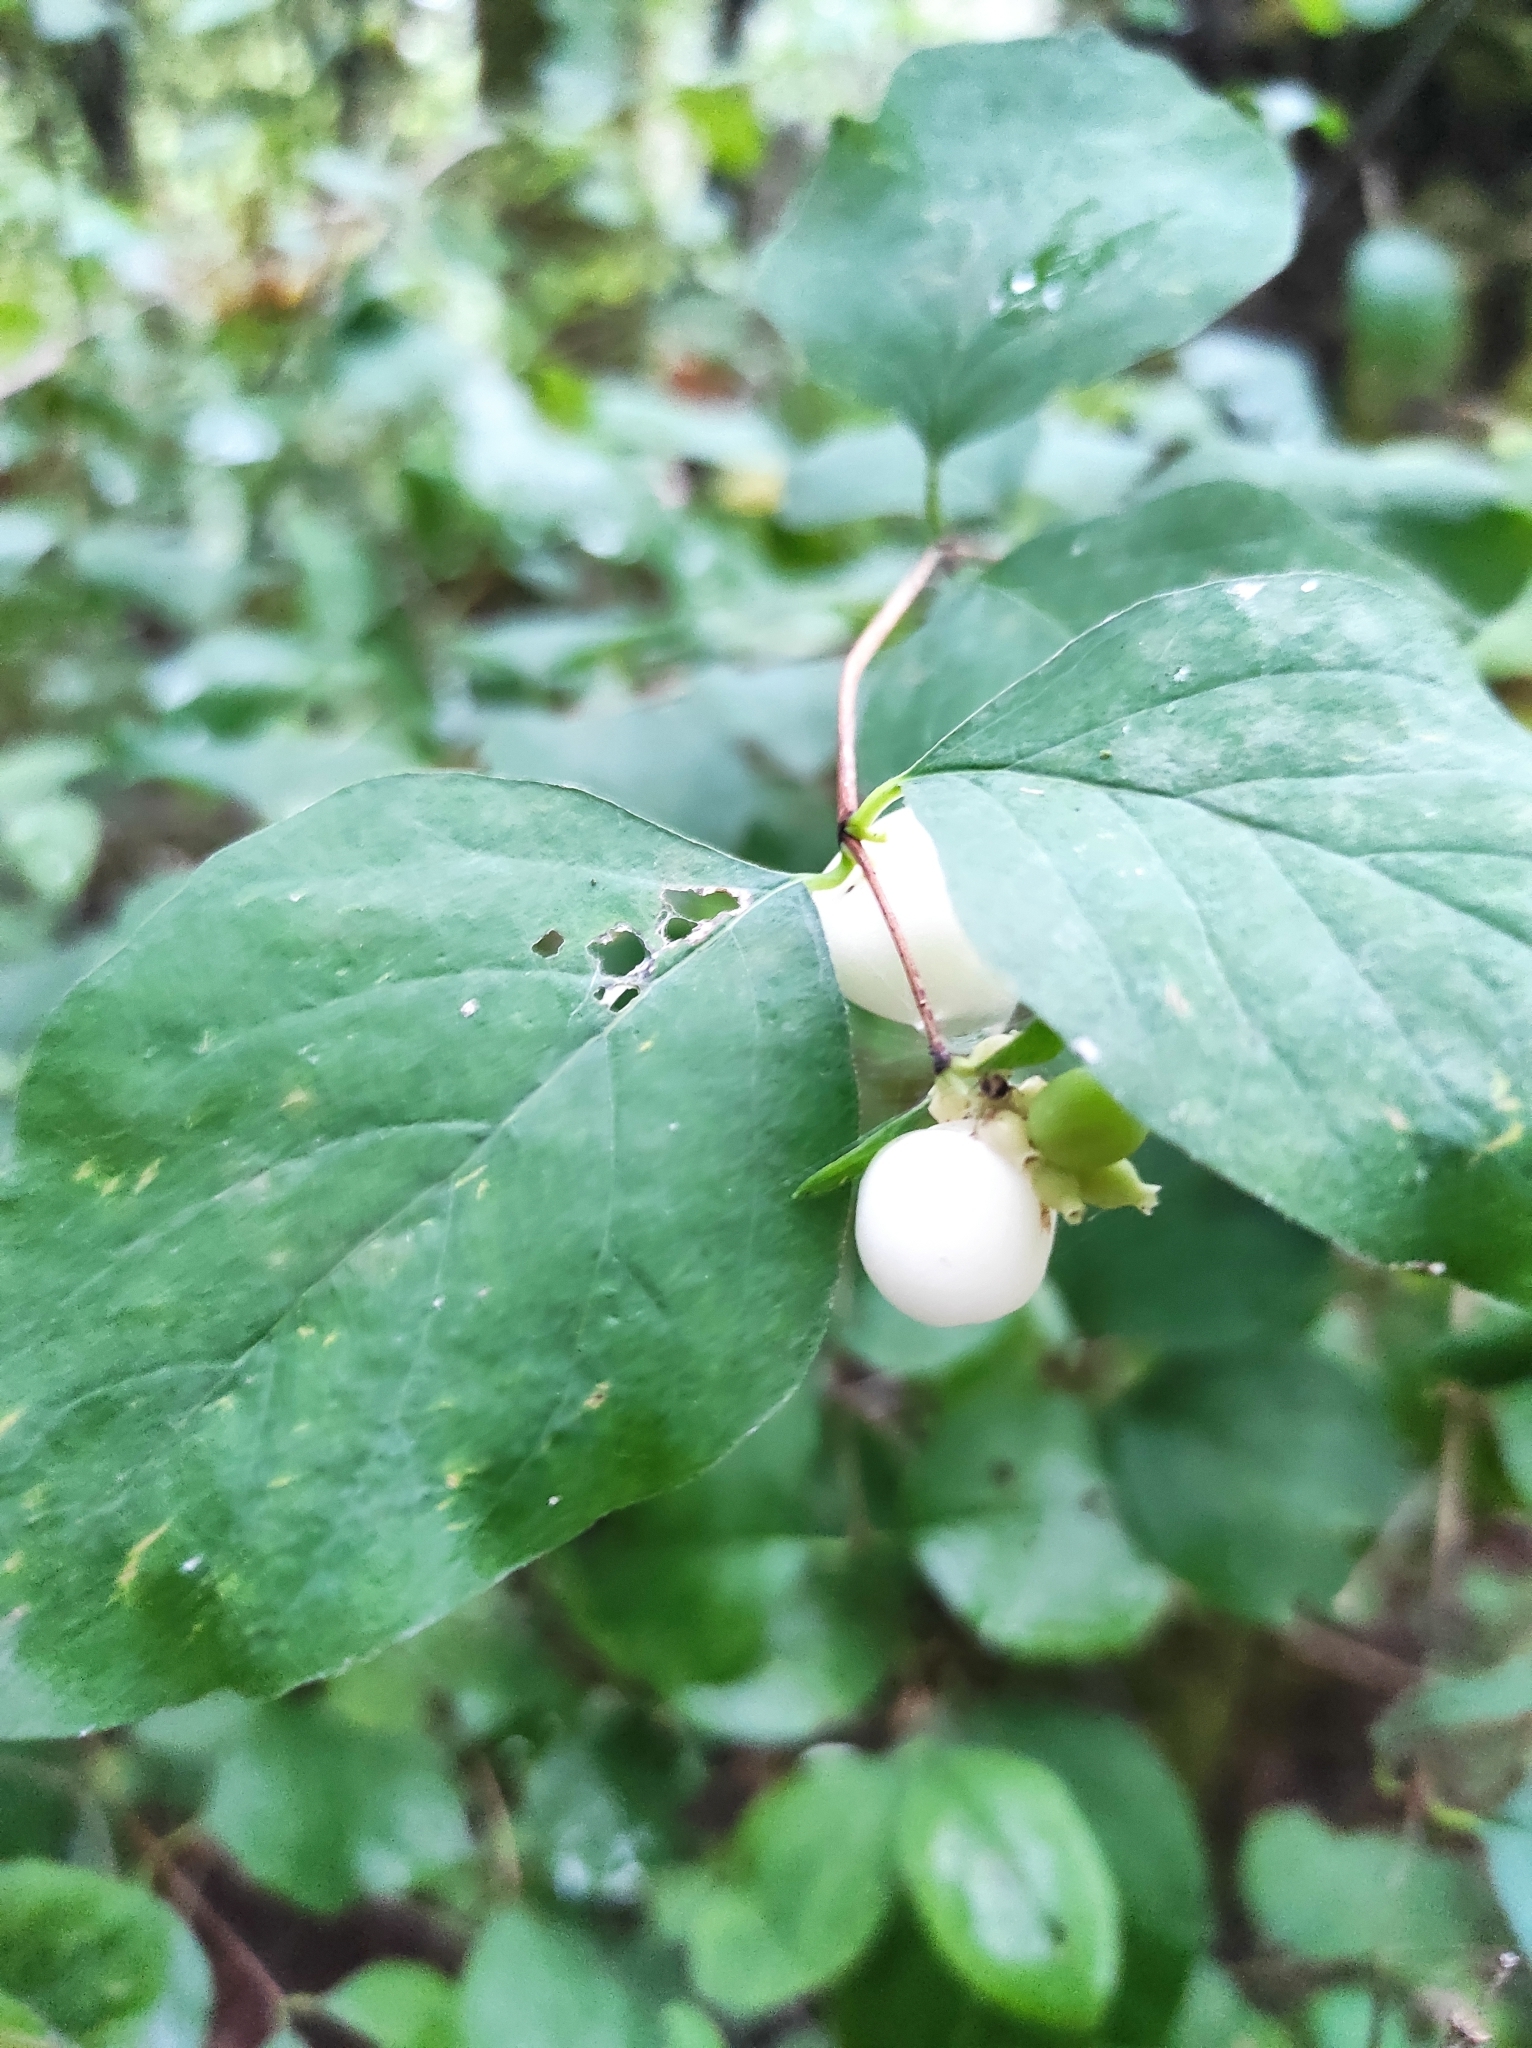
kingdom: Plantae
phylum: Tracheophyta
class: Magnoliopsida
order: Dipsacales
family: Caprifoliaceae
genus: Symphoricarpos
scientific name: Symphoricarpos albus
